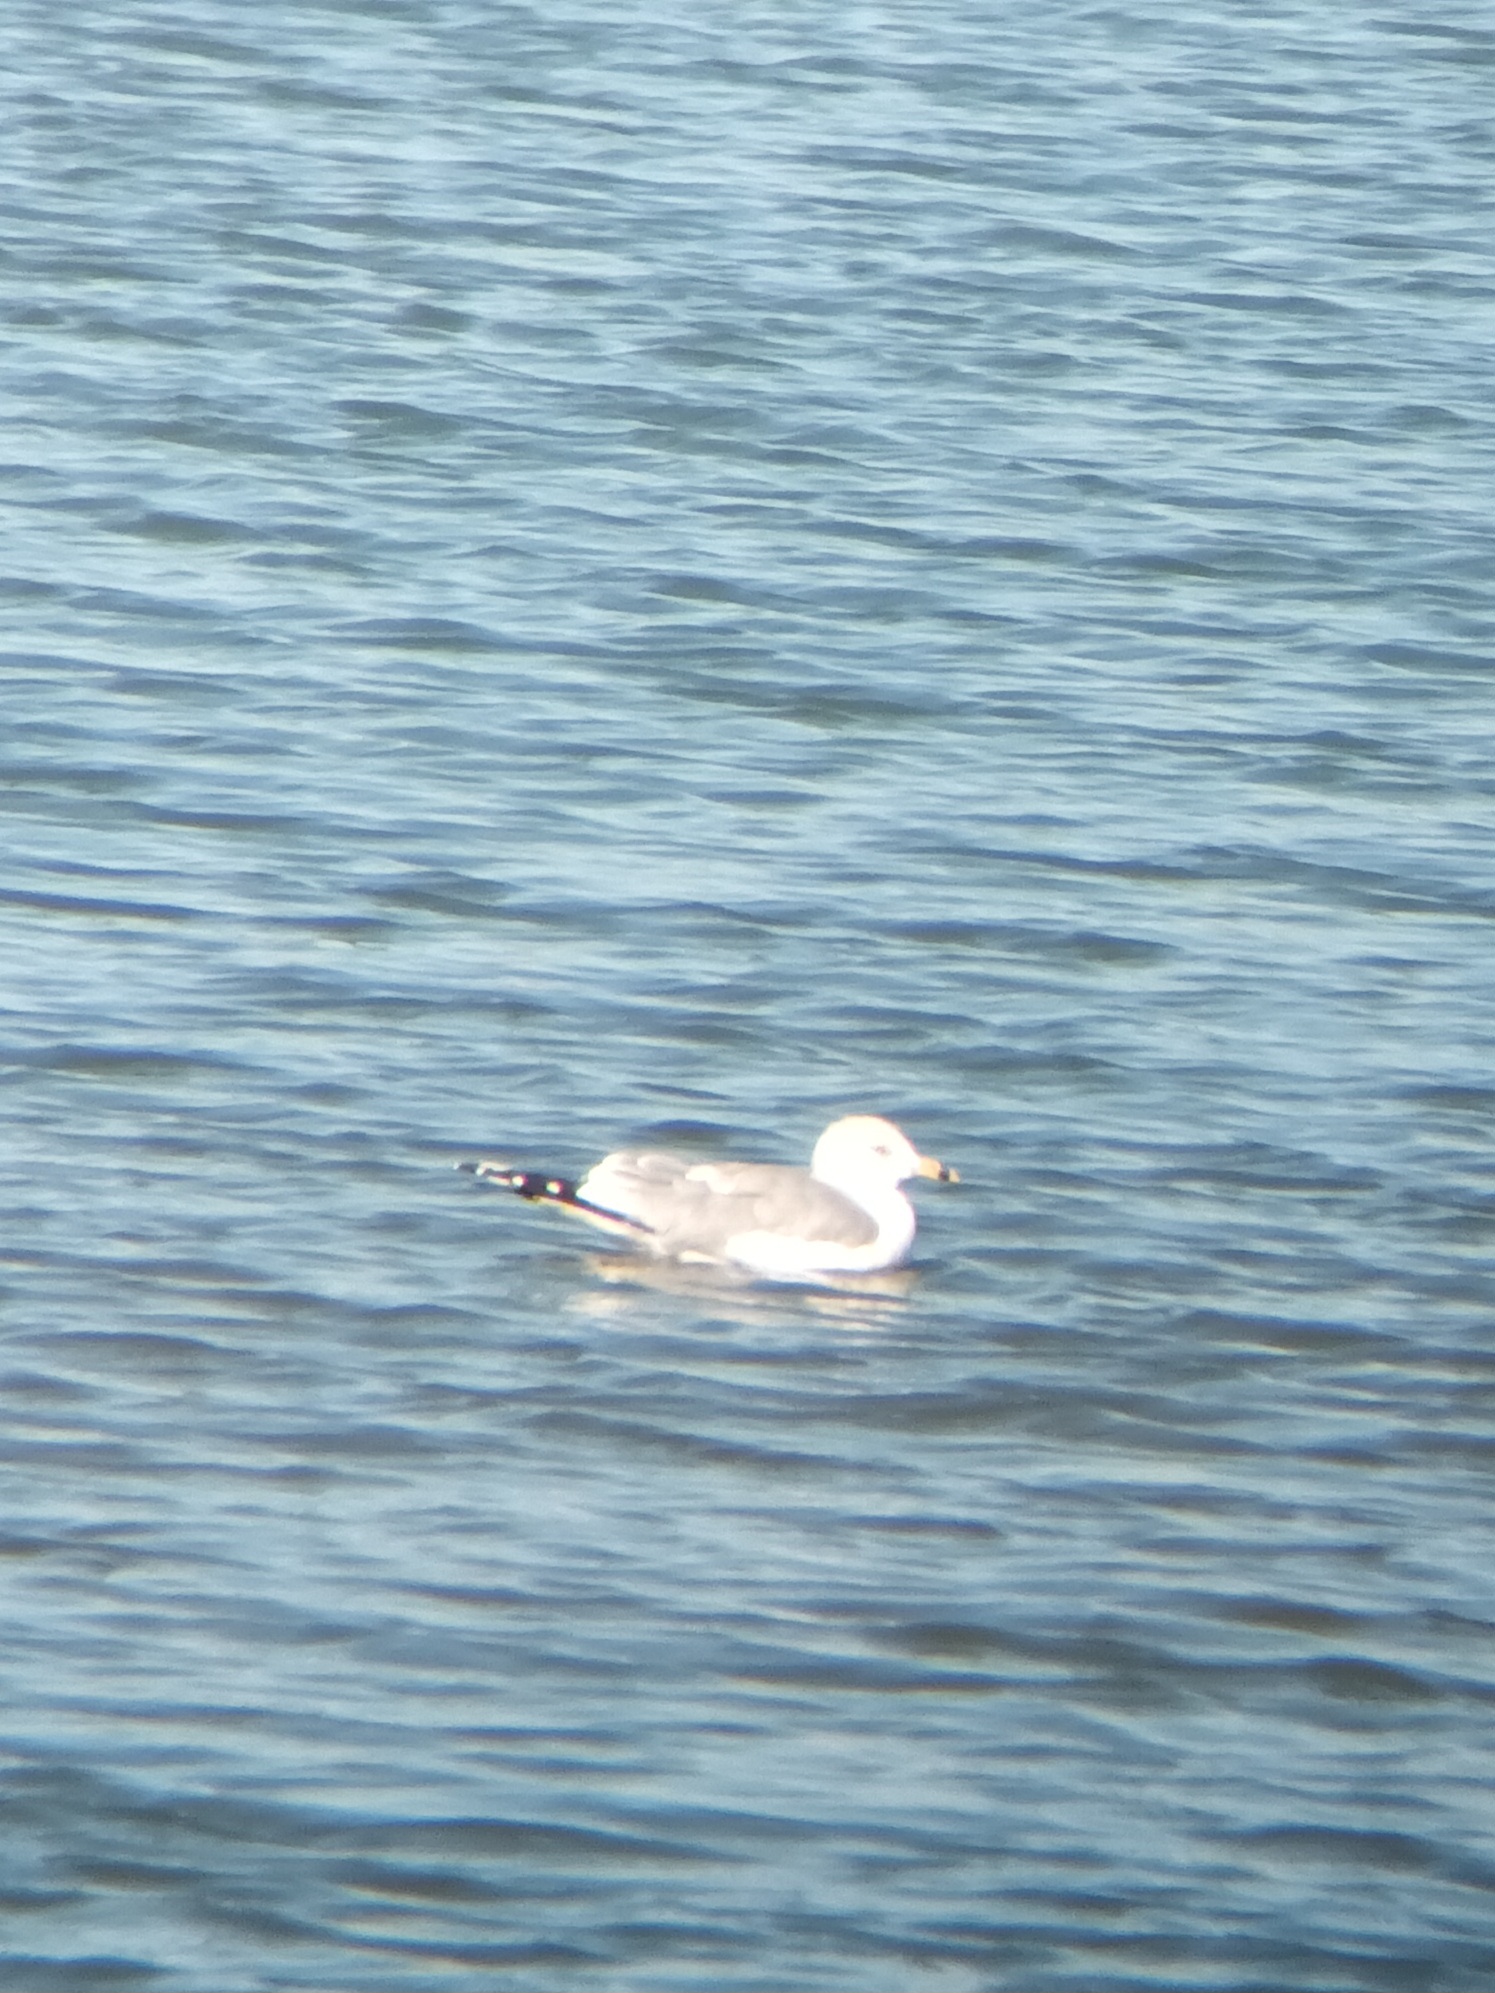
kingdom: Animalia
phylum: Chordata
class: Aves
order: Charadriiformes
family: Laridae
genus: Larus
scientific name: Larus delawarensis
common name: Ring-billed gull
